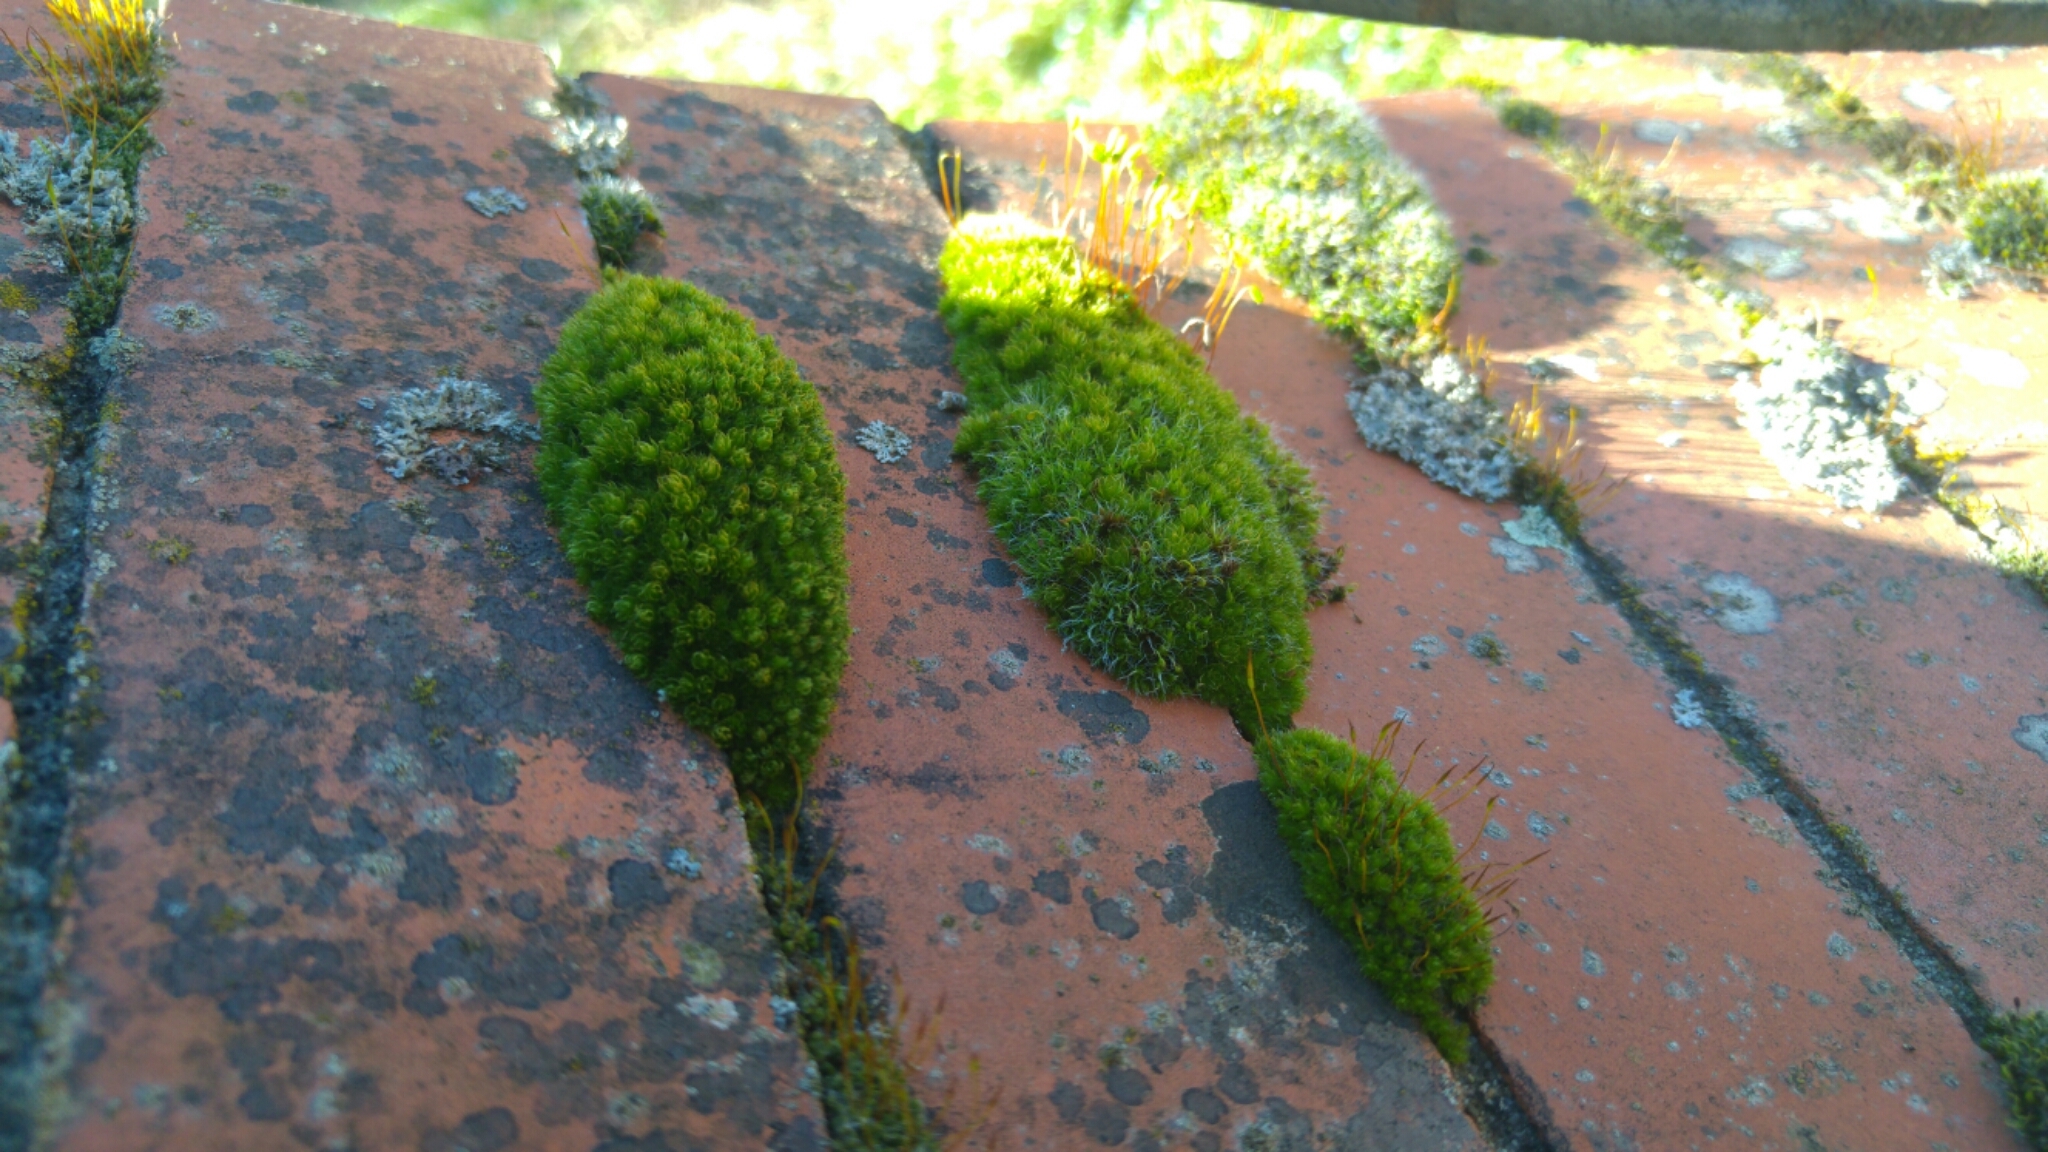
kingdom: Plantae
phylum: Bryophyta
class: Bryopsida
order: Pottiales
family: Pottiaceae
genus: Tortula
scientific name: Tortula muralis
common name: Wall screw-moss
